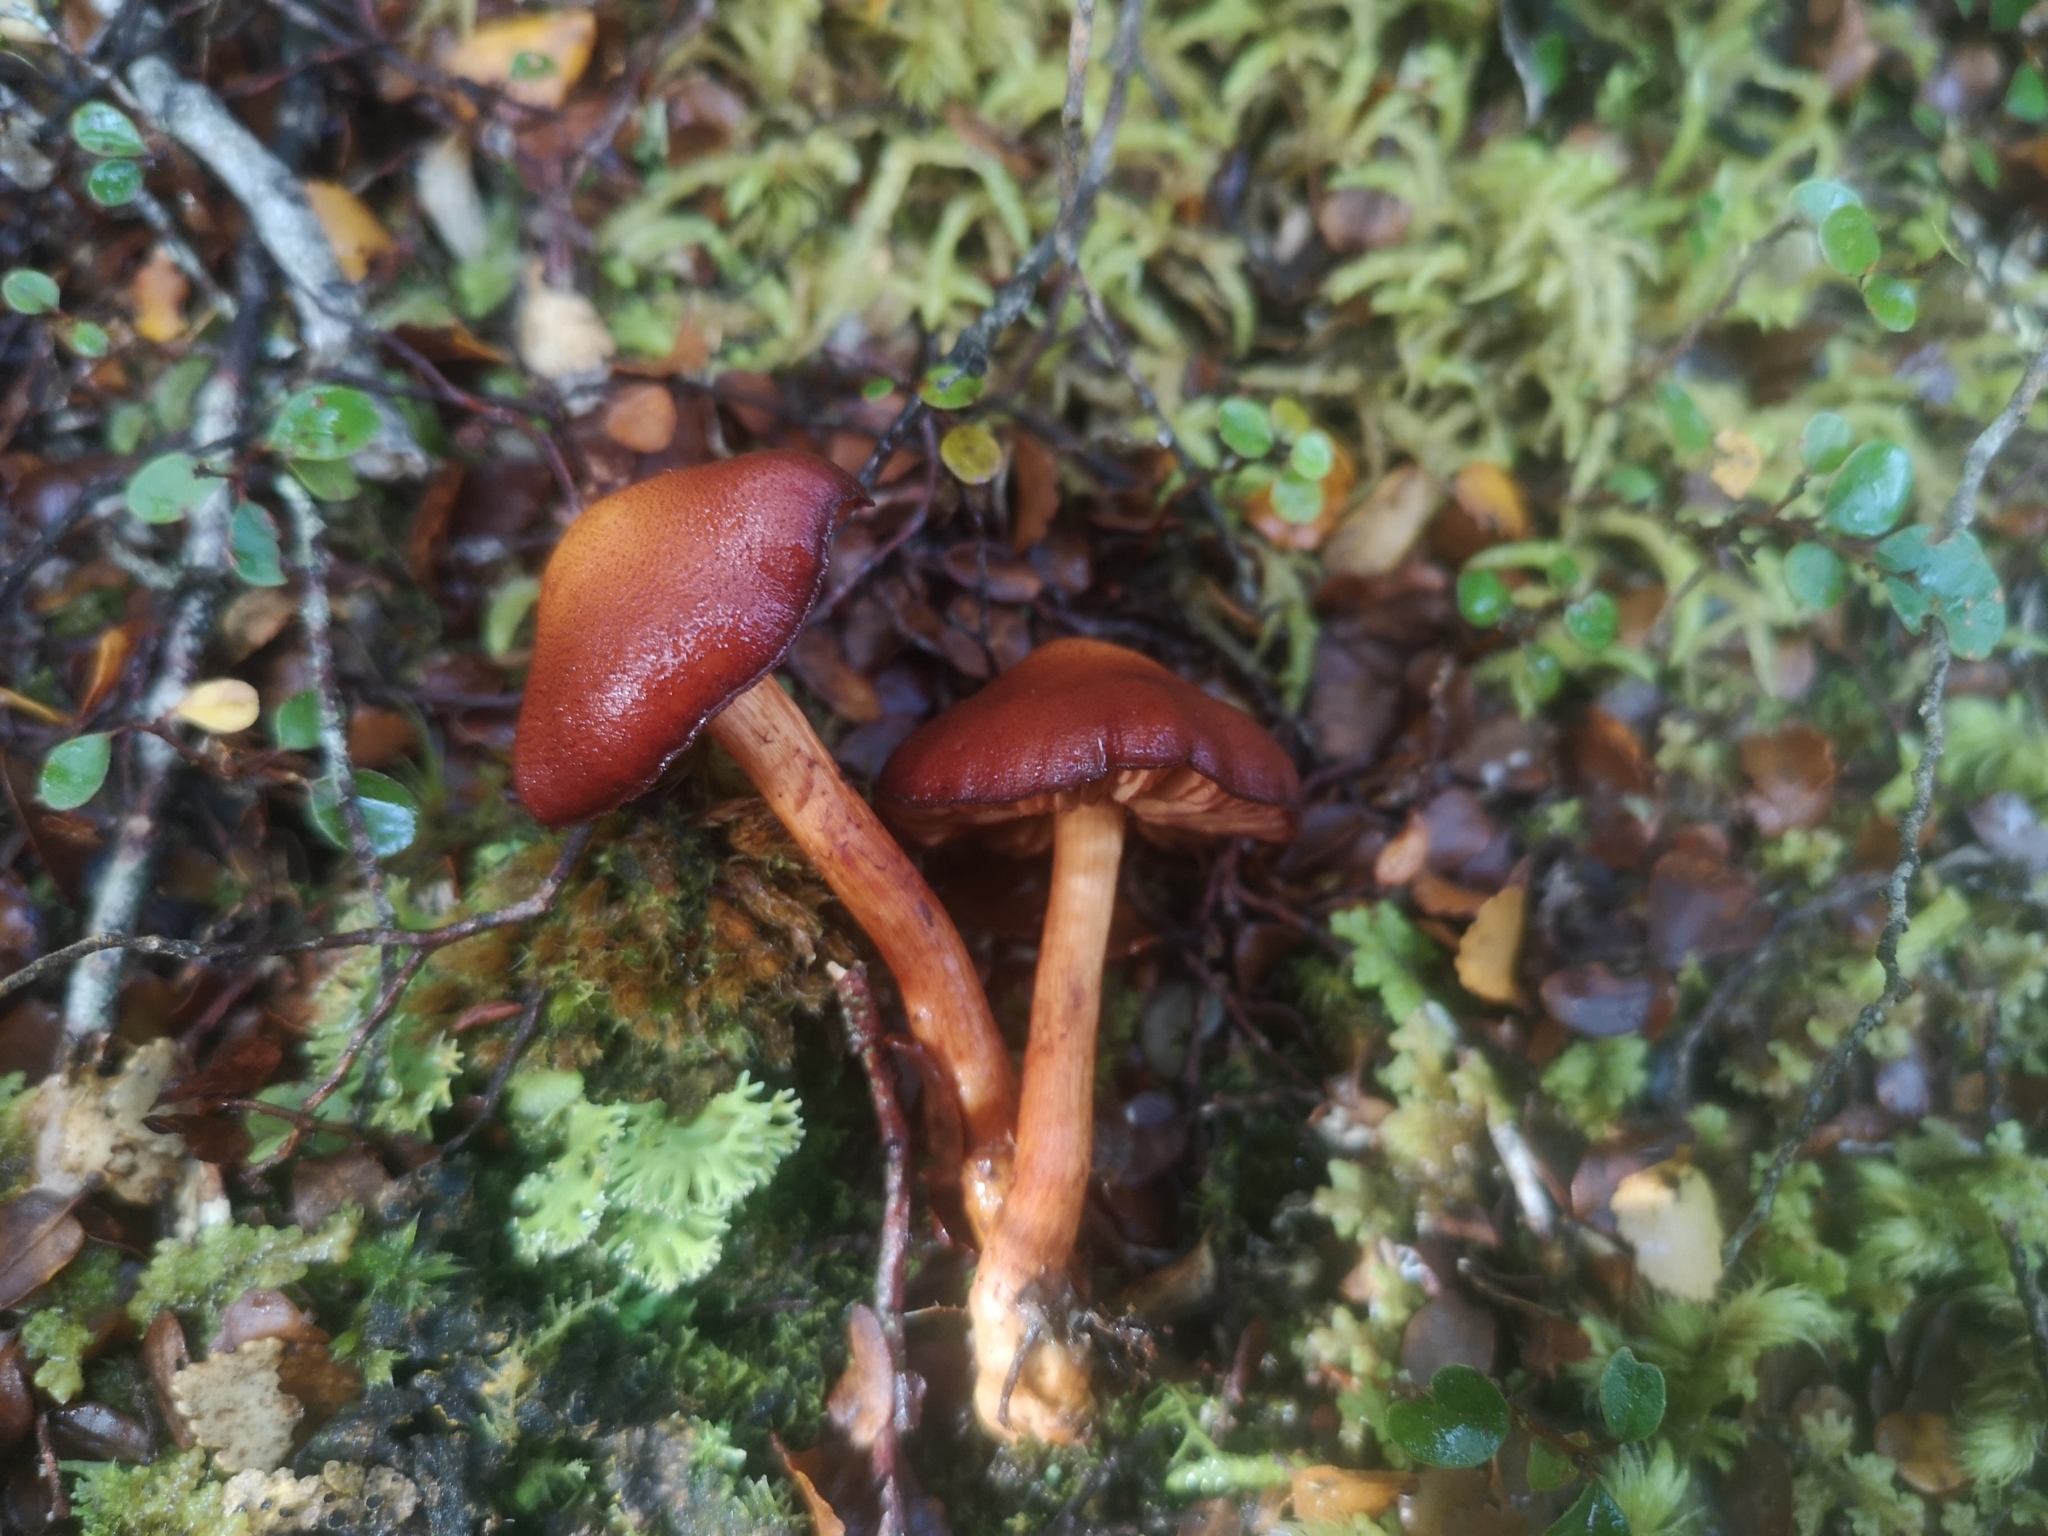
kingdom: Fungi
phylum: Basidiomycota
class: Agaricomycetes
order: Agaricales
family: Cortinariaceae
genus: Aureonarius
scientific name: Aureonarius eucollybianus
